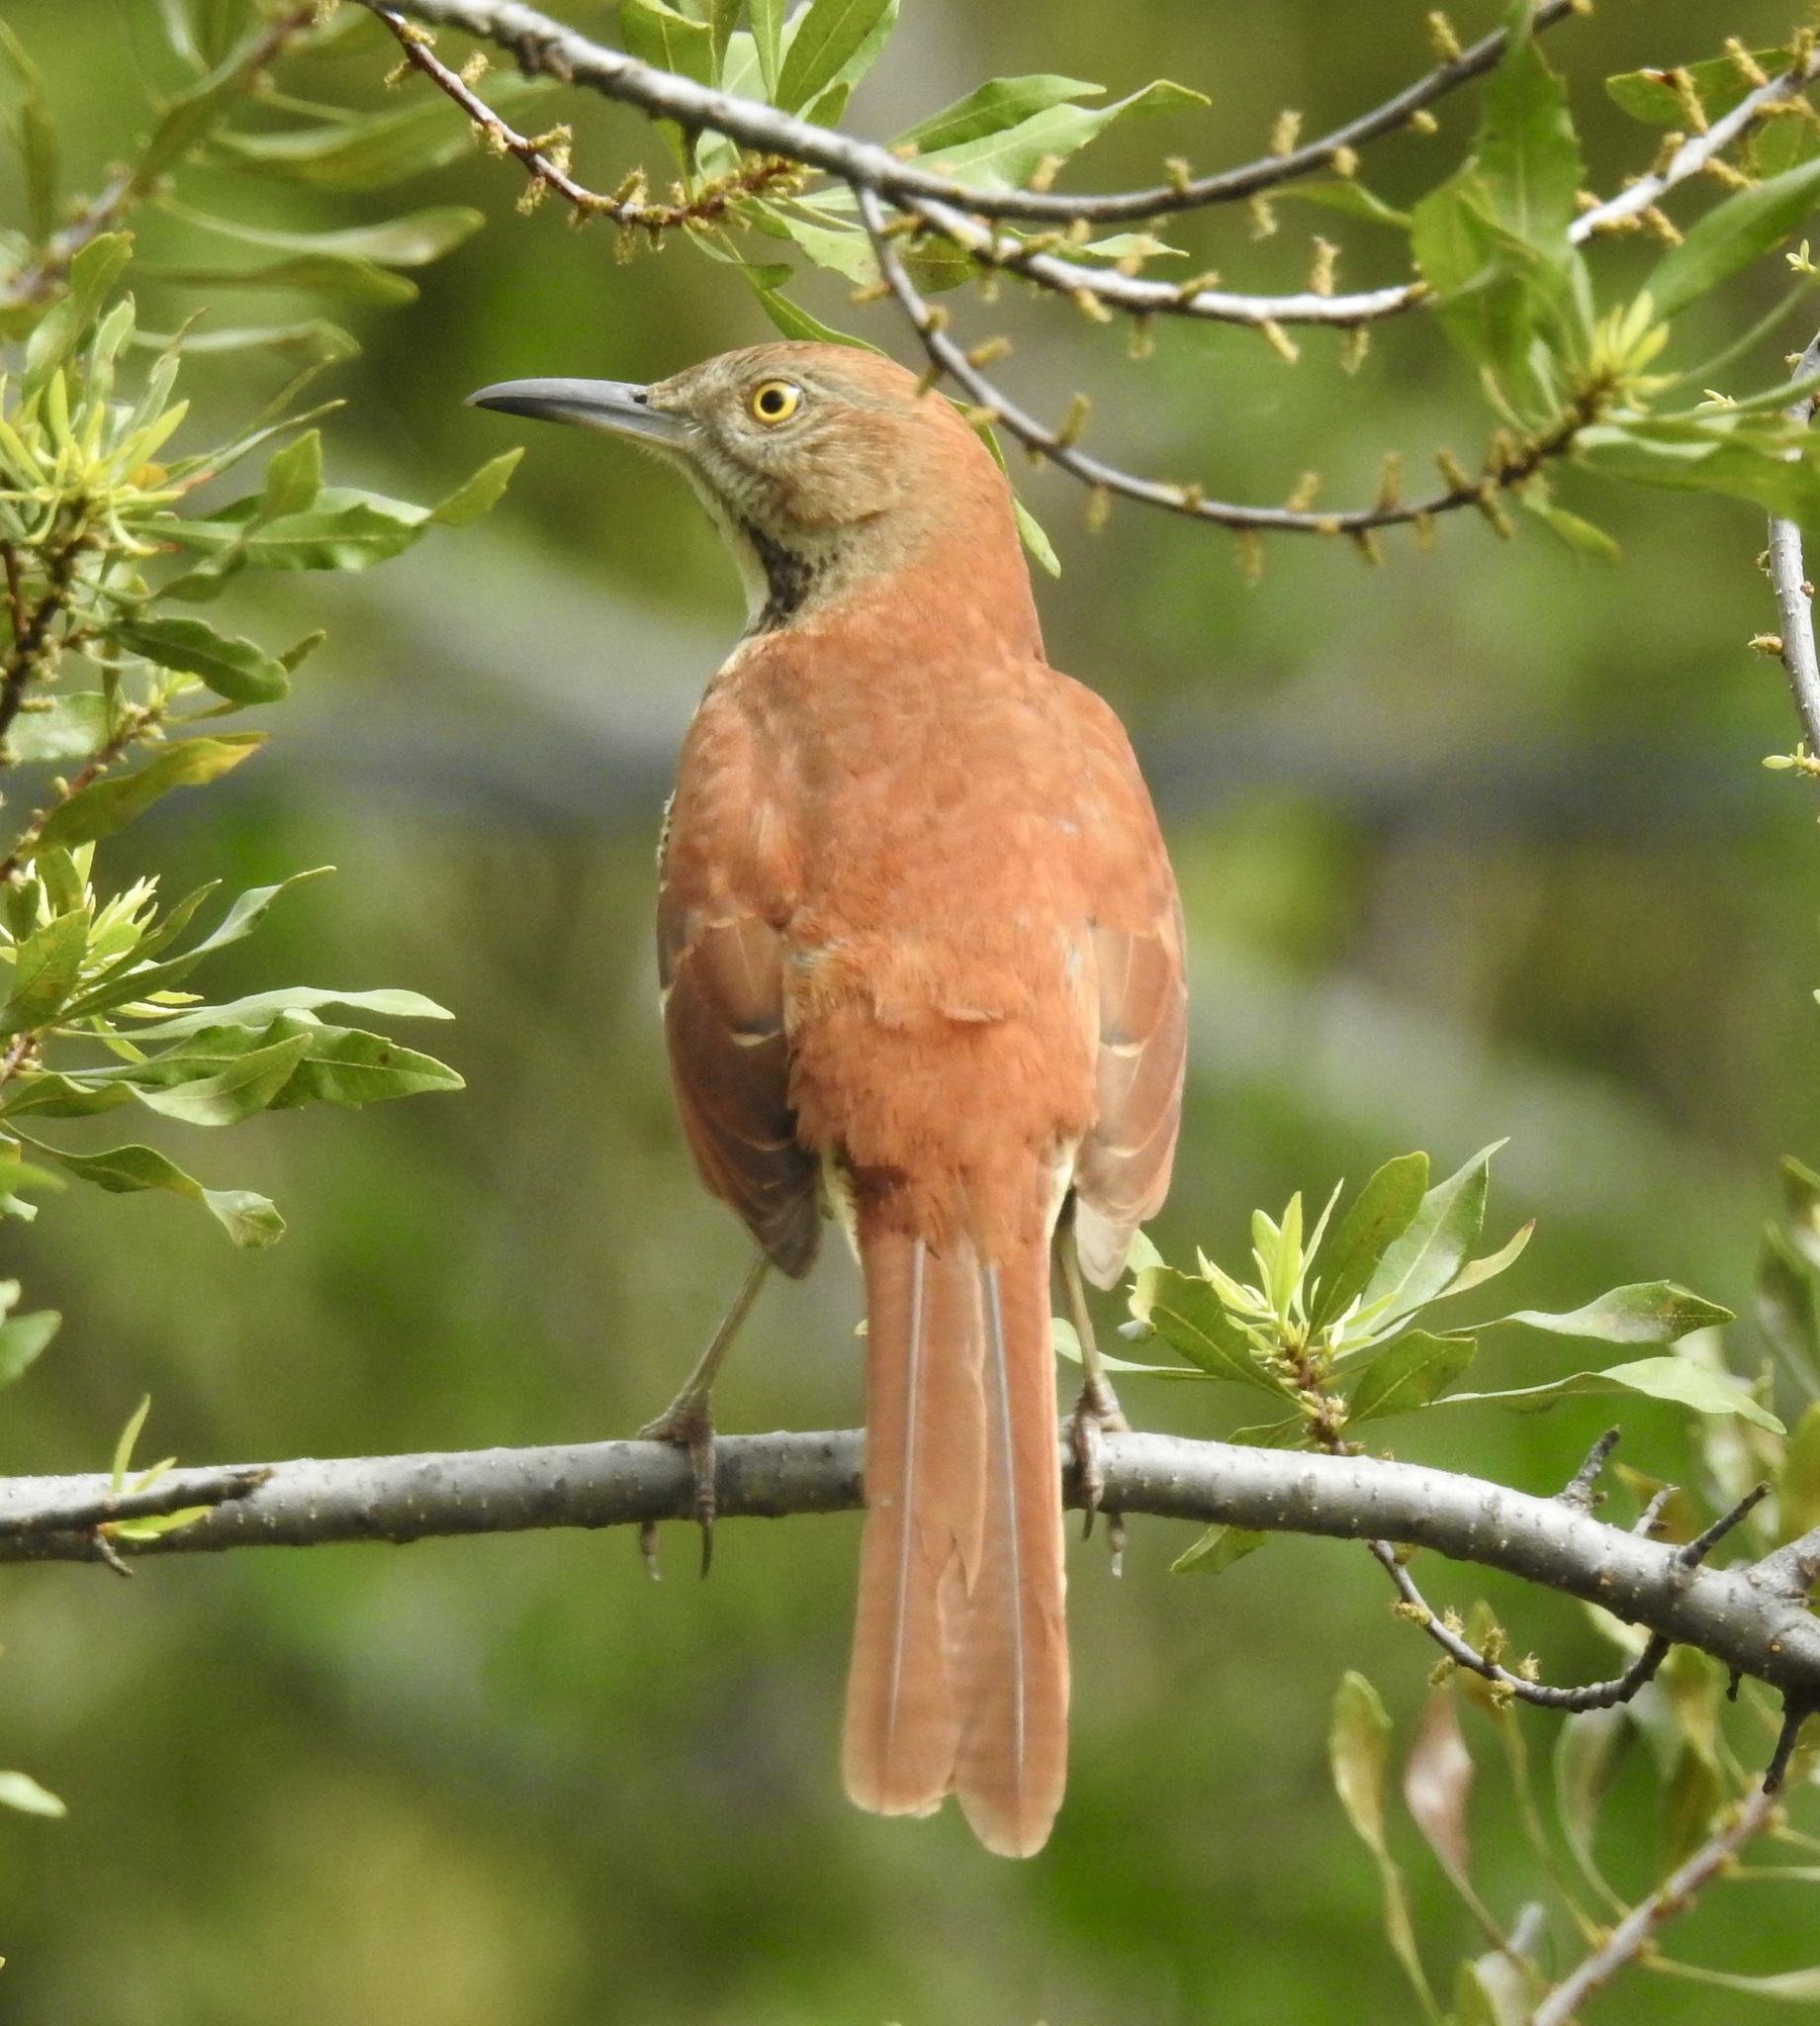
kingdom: Animalia
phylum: Chordata
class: Aves
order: Passeriformes
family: Mimidae
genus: Toxostoma
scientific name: Toxostoma rufum
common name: Brown thrasher
